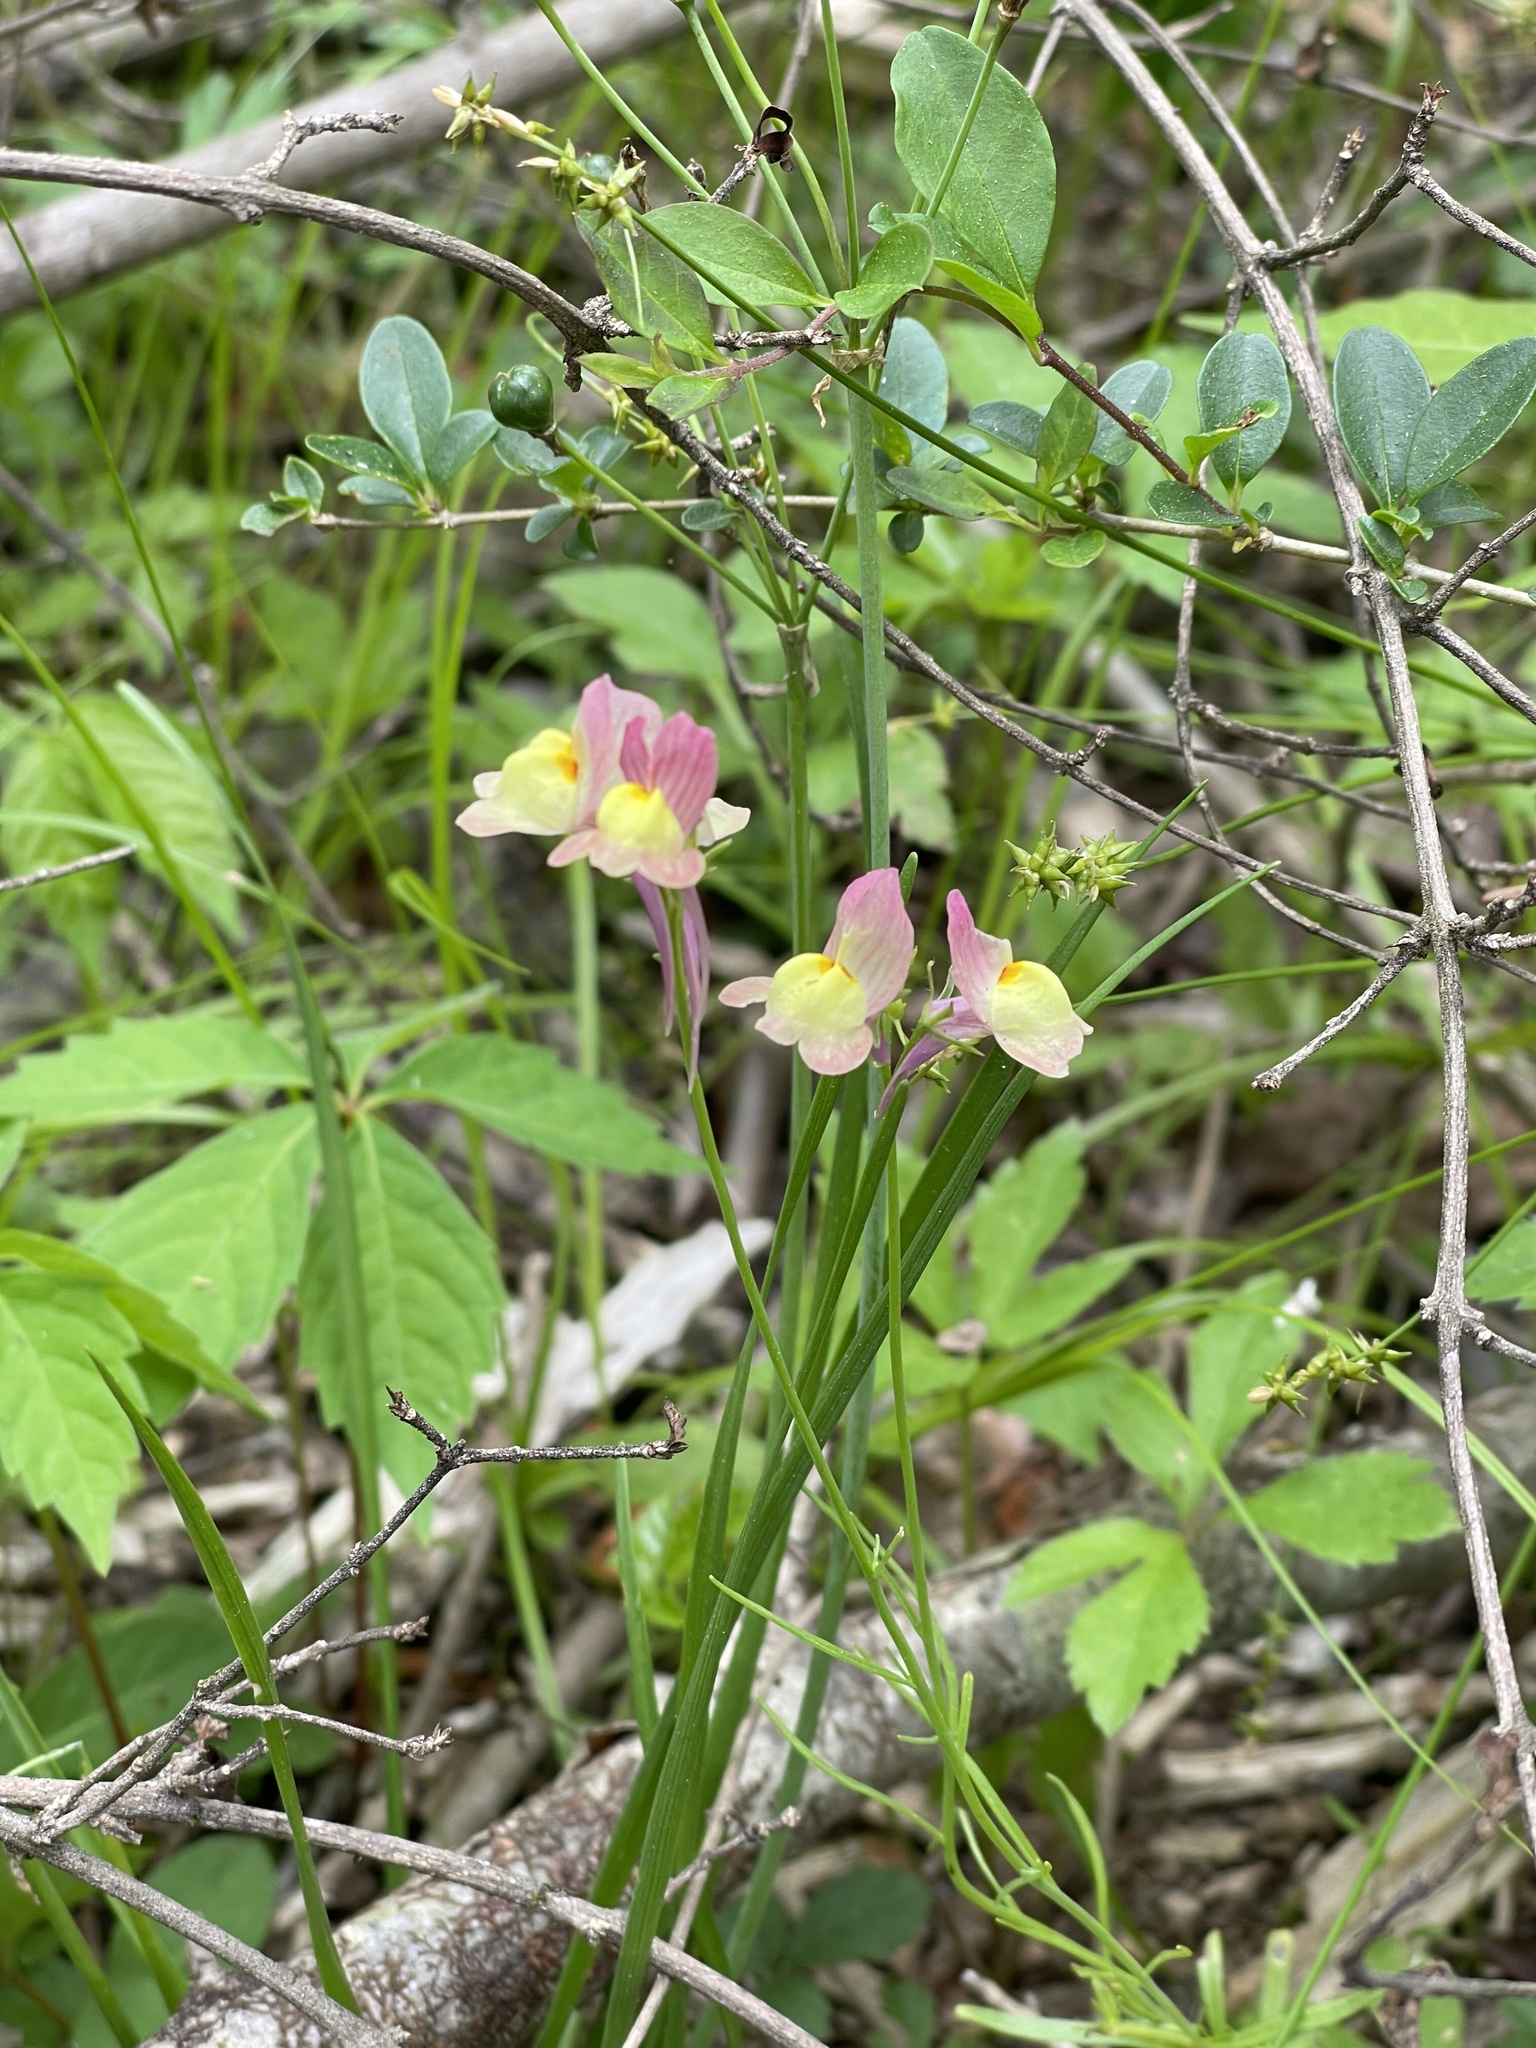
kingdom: Plantae
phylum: Tracheophyta
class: Magnoliopsida
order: Lamiales
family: Plantaginaceae
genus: Linaria
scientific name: Linaria maroccana
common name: Moroccan toadflax
